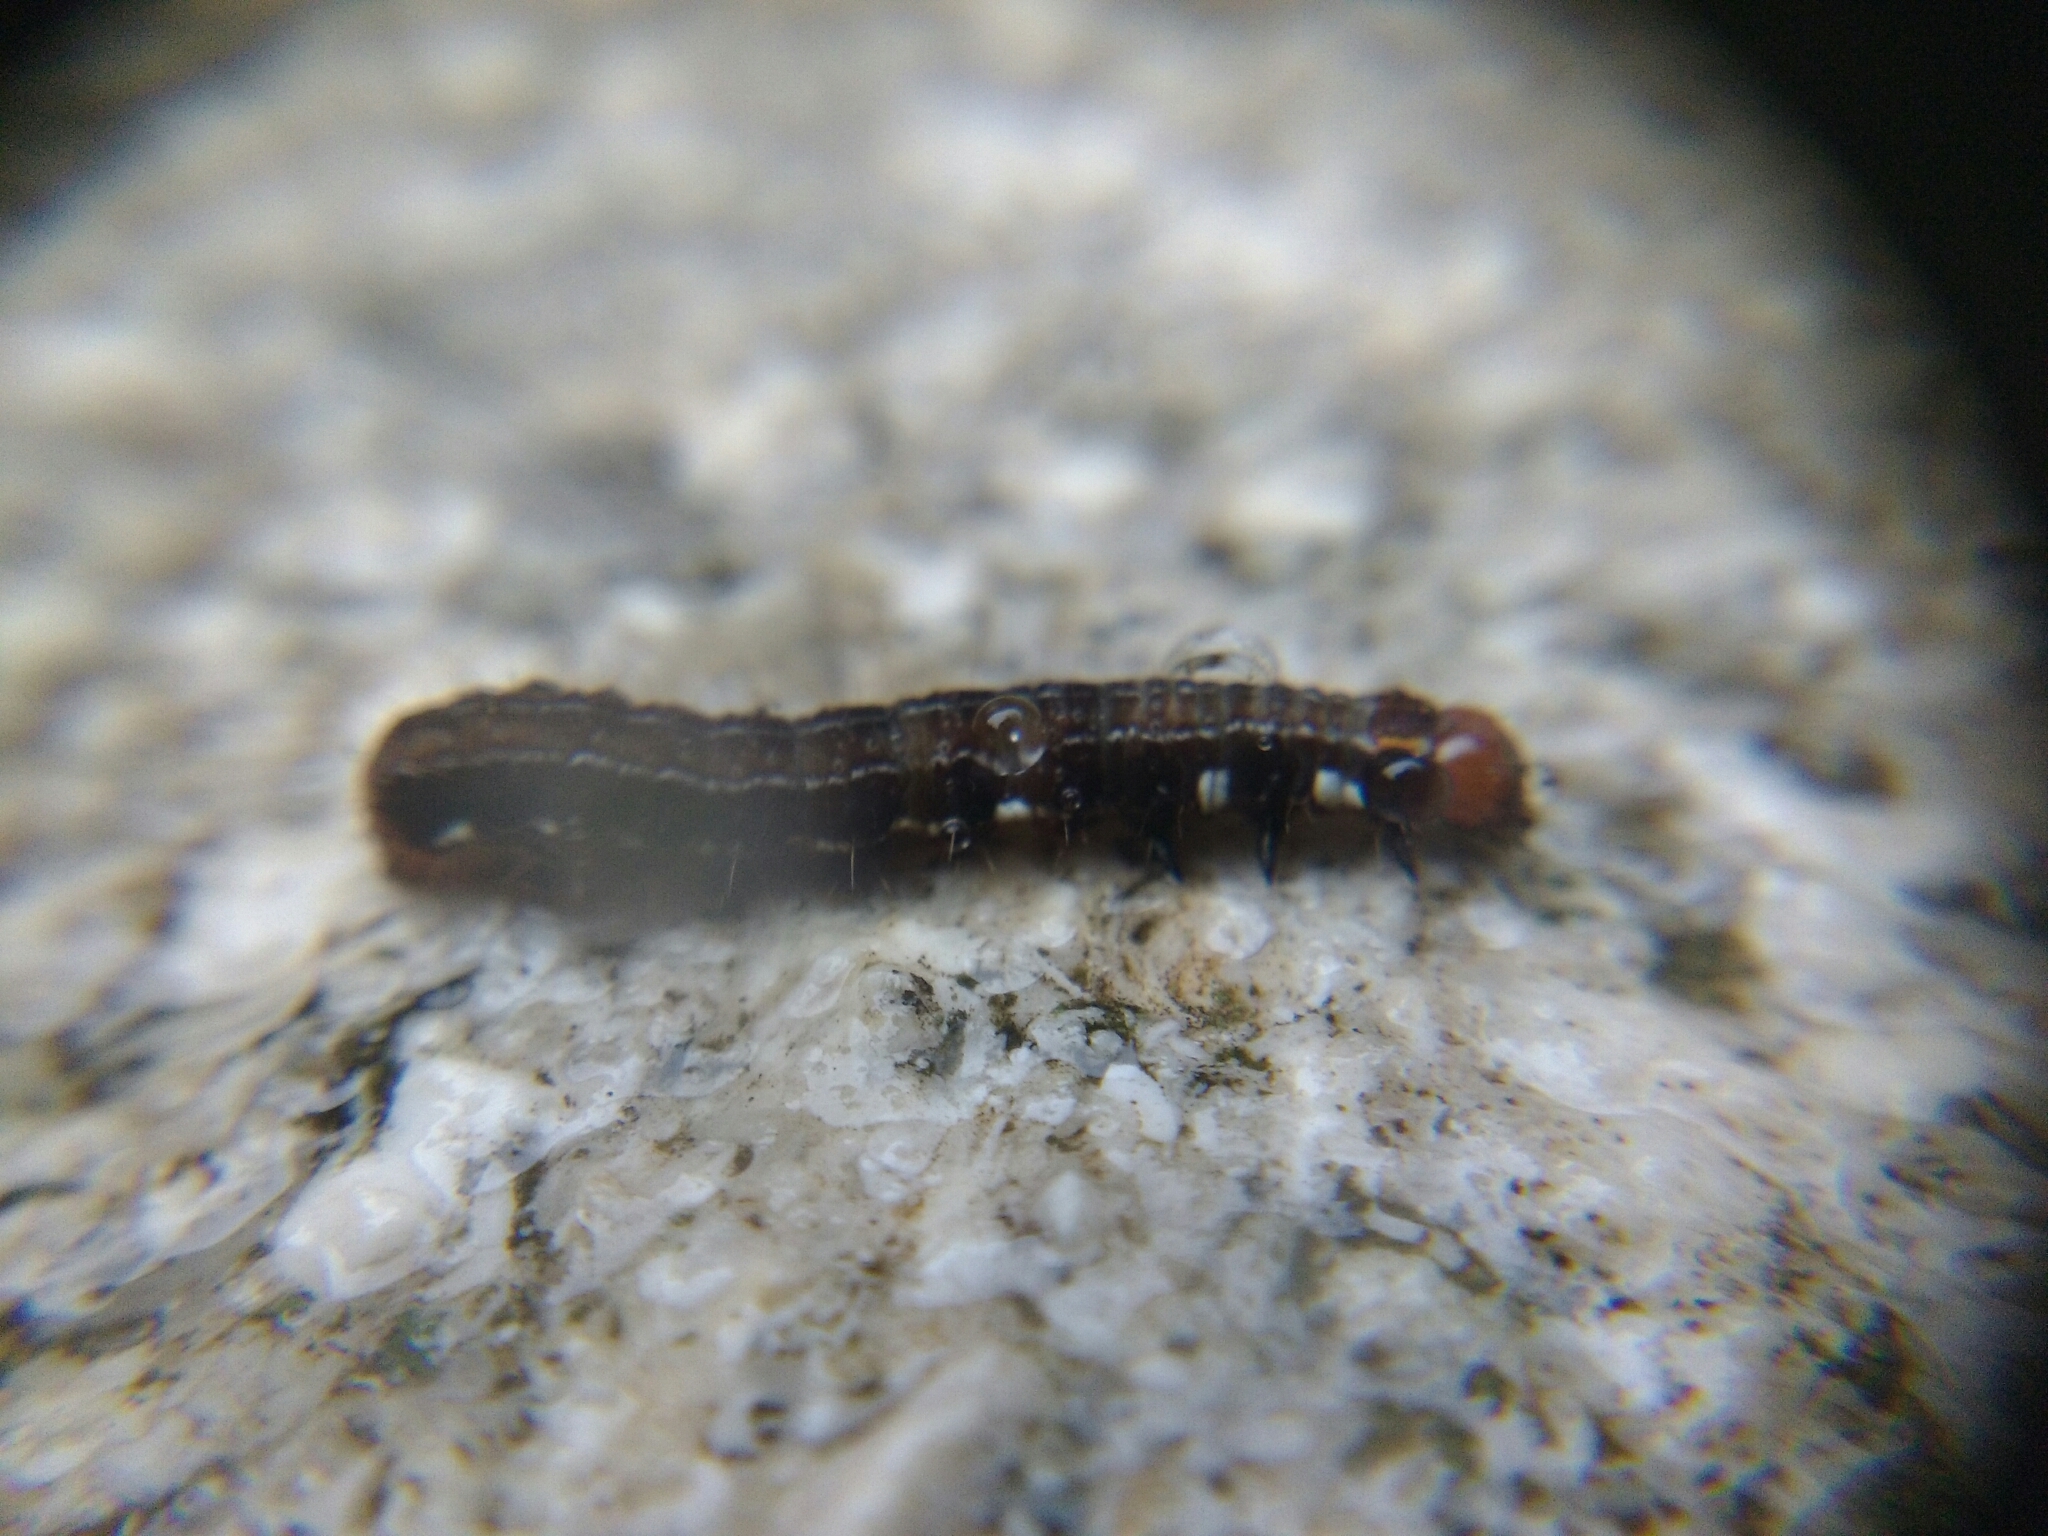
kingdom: Animalia
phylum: Arthropoda
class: Insecta
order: Lepidoptera
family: Noctuidae
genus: Eupsilia
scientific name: Eupsilia transversa
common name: Satellite
